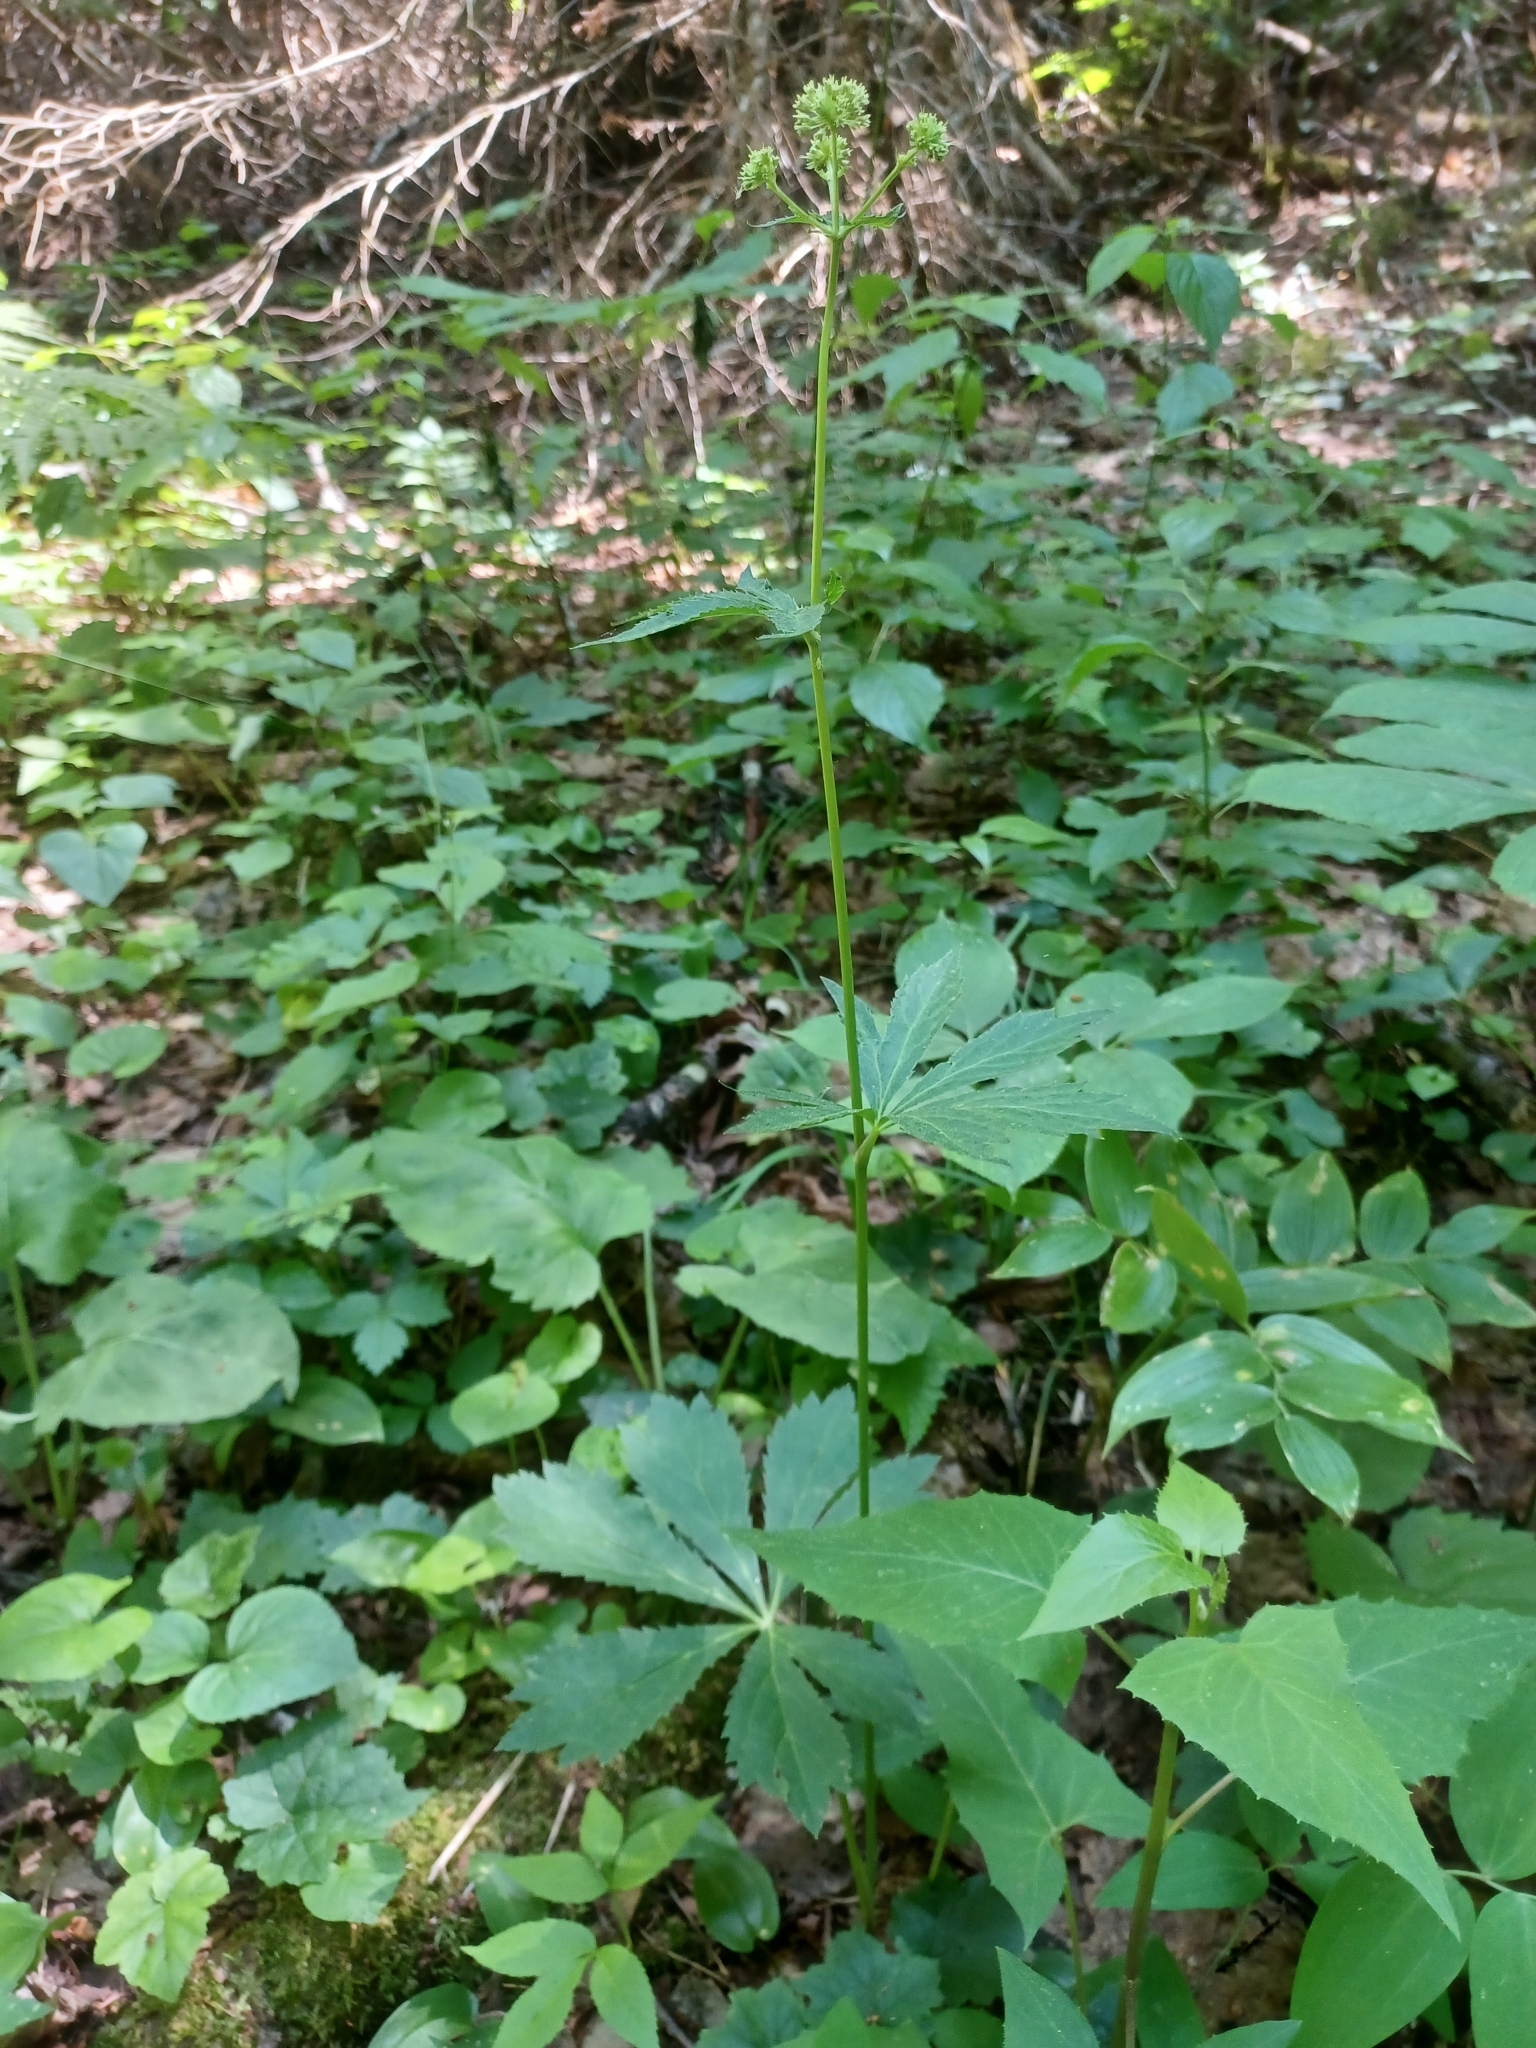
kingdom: Plantae
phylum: Tracheophyta
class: Magnoliopsida
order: Apiales
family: Apiaceae
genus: Sanicula
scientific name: Sanicula marilandica
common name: Black snakeroot
